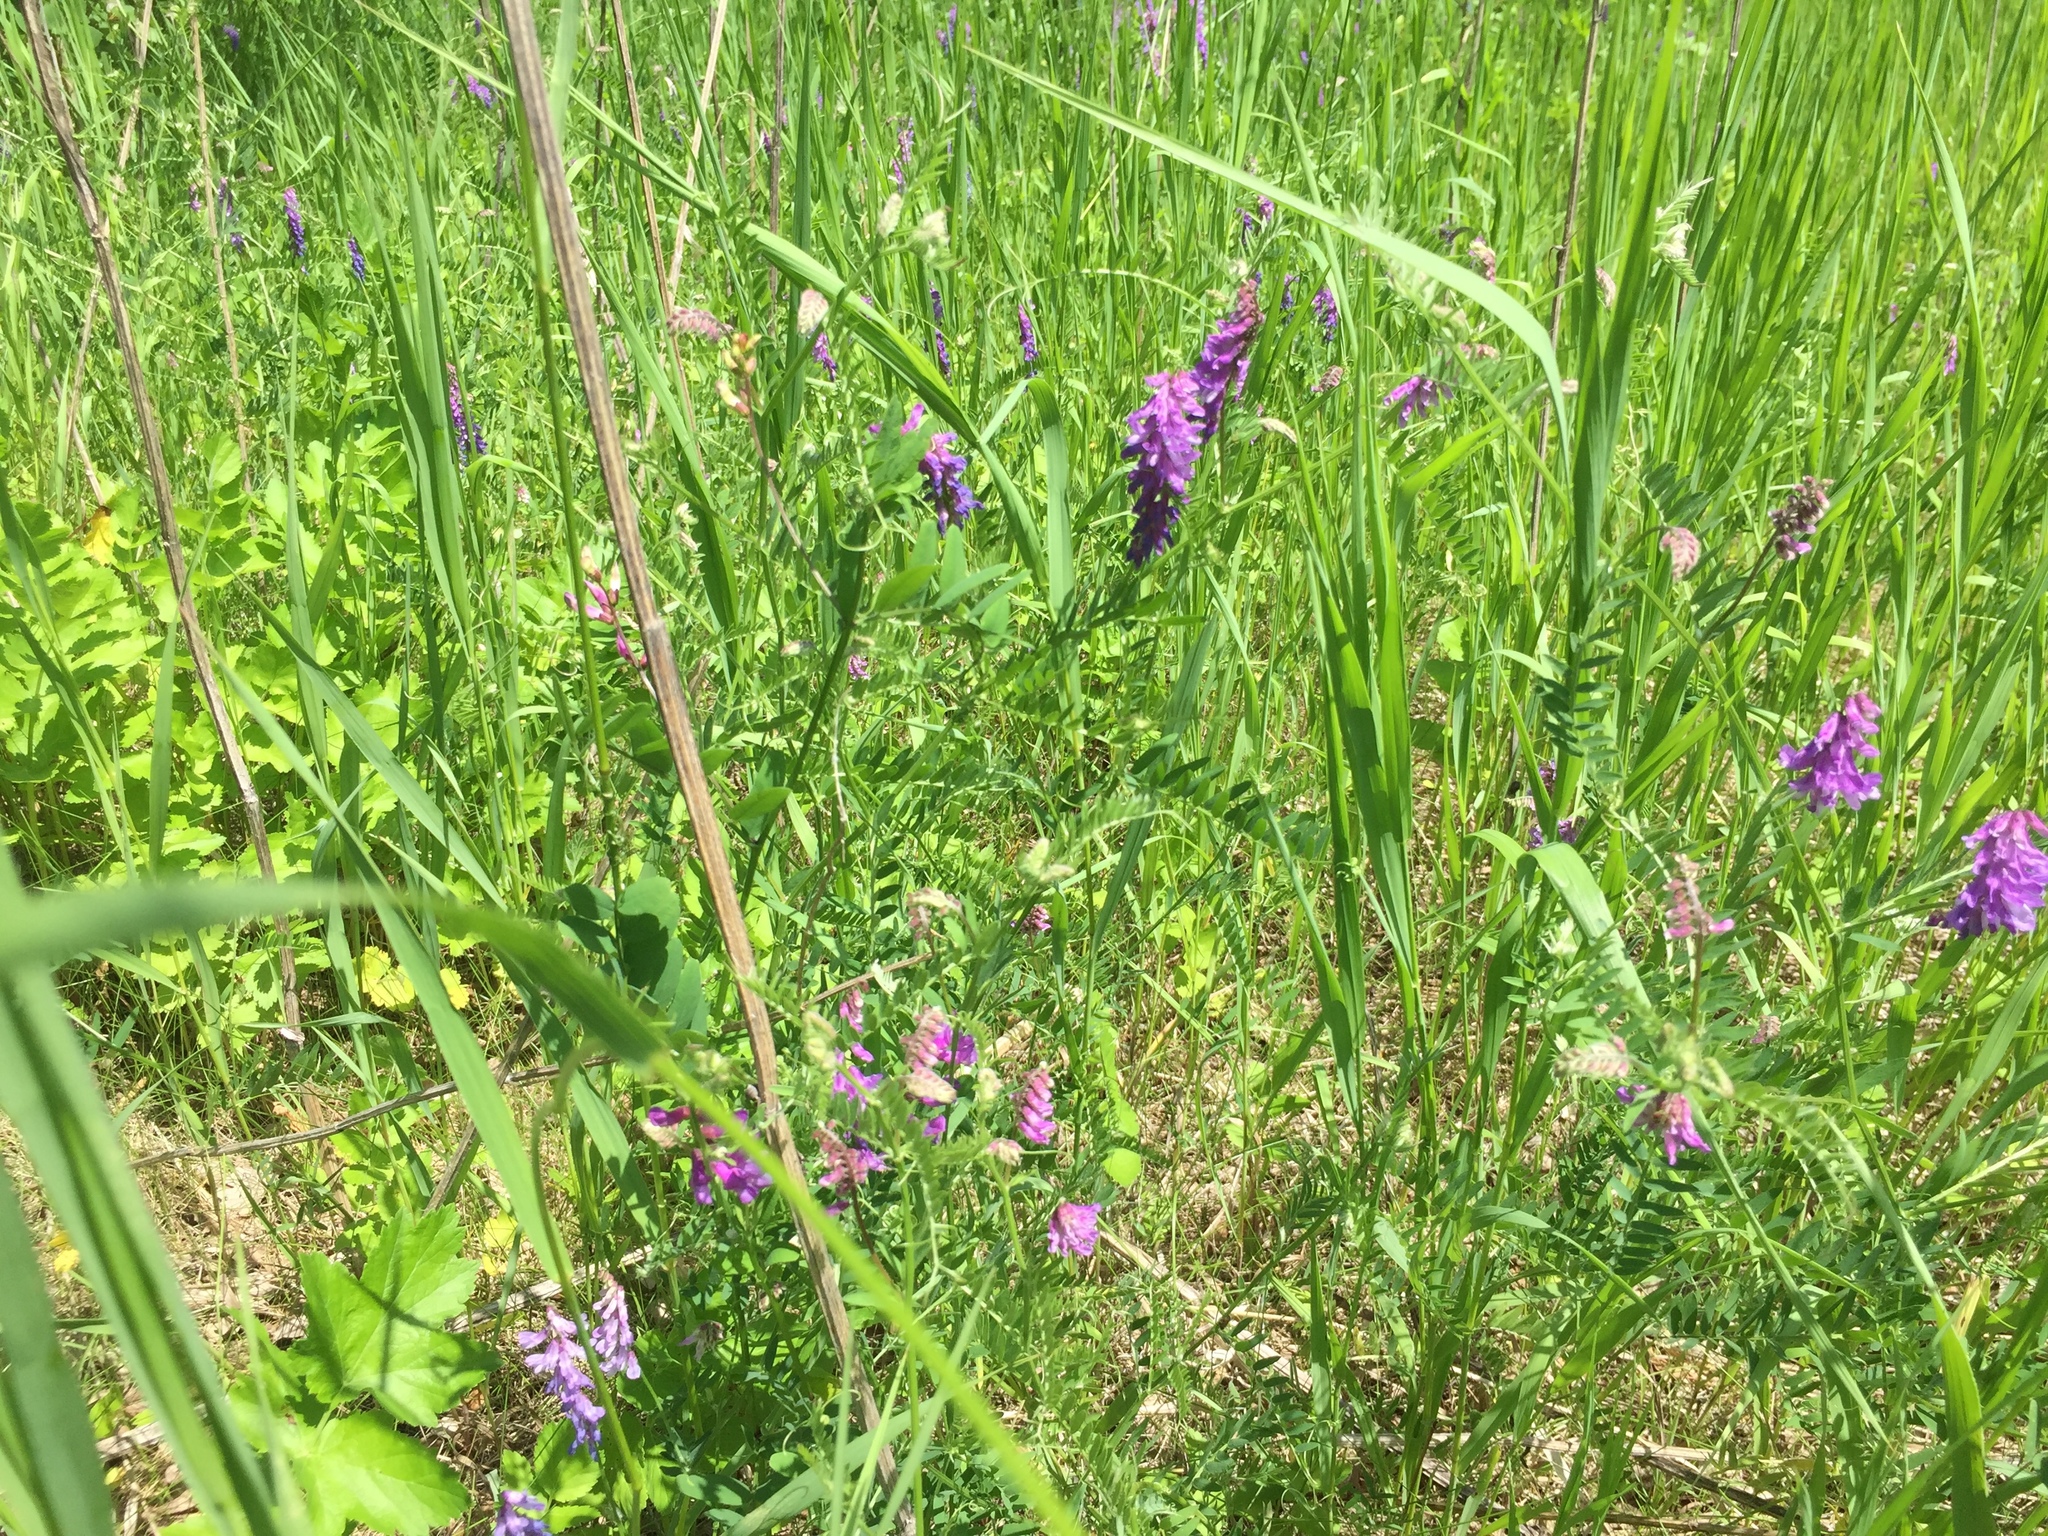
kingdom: Plantae
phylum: Tracheophyta
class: Magnoliopsida
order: Fabales
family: Fabaceae
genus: Vicia
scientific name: Vicia cracca
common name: Bird vetch
